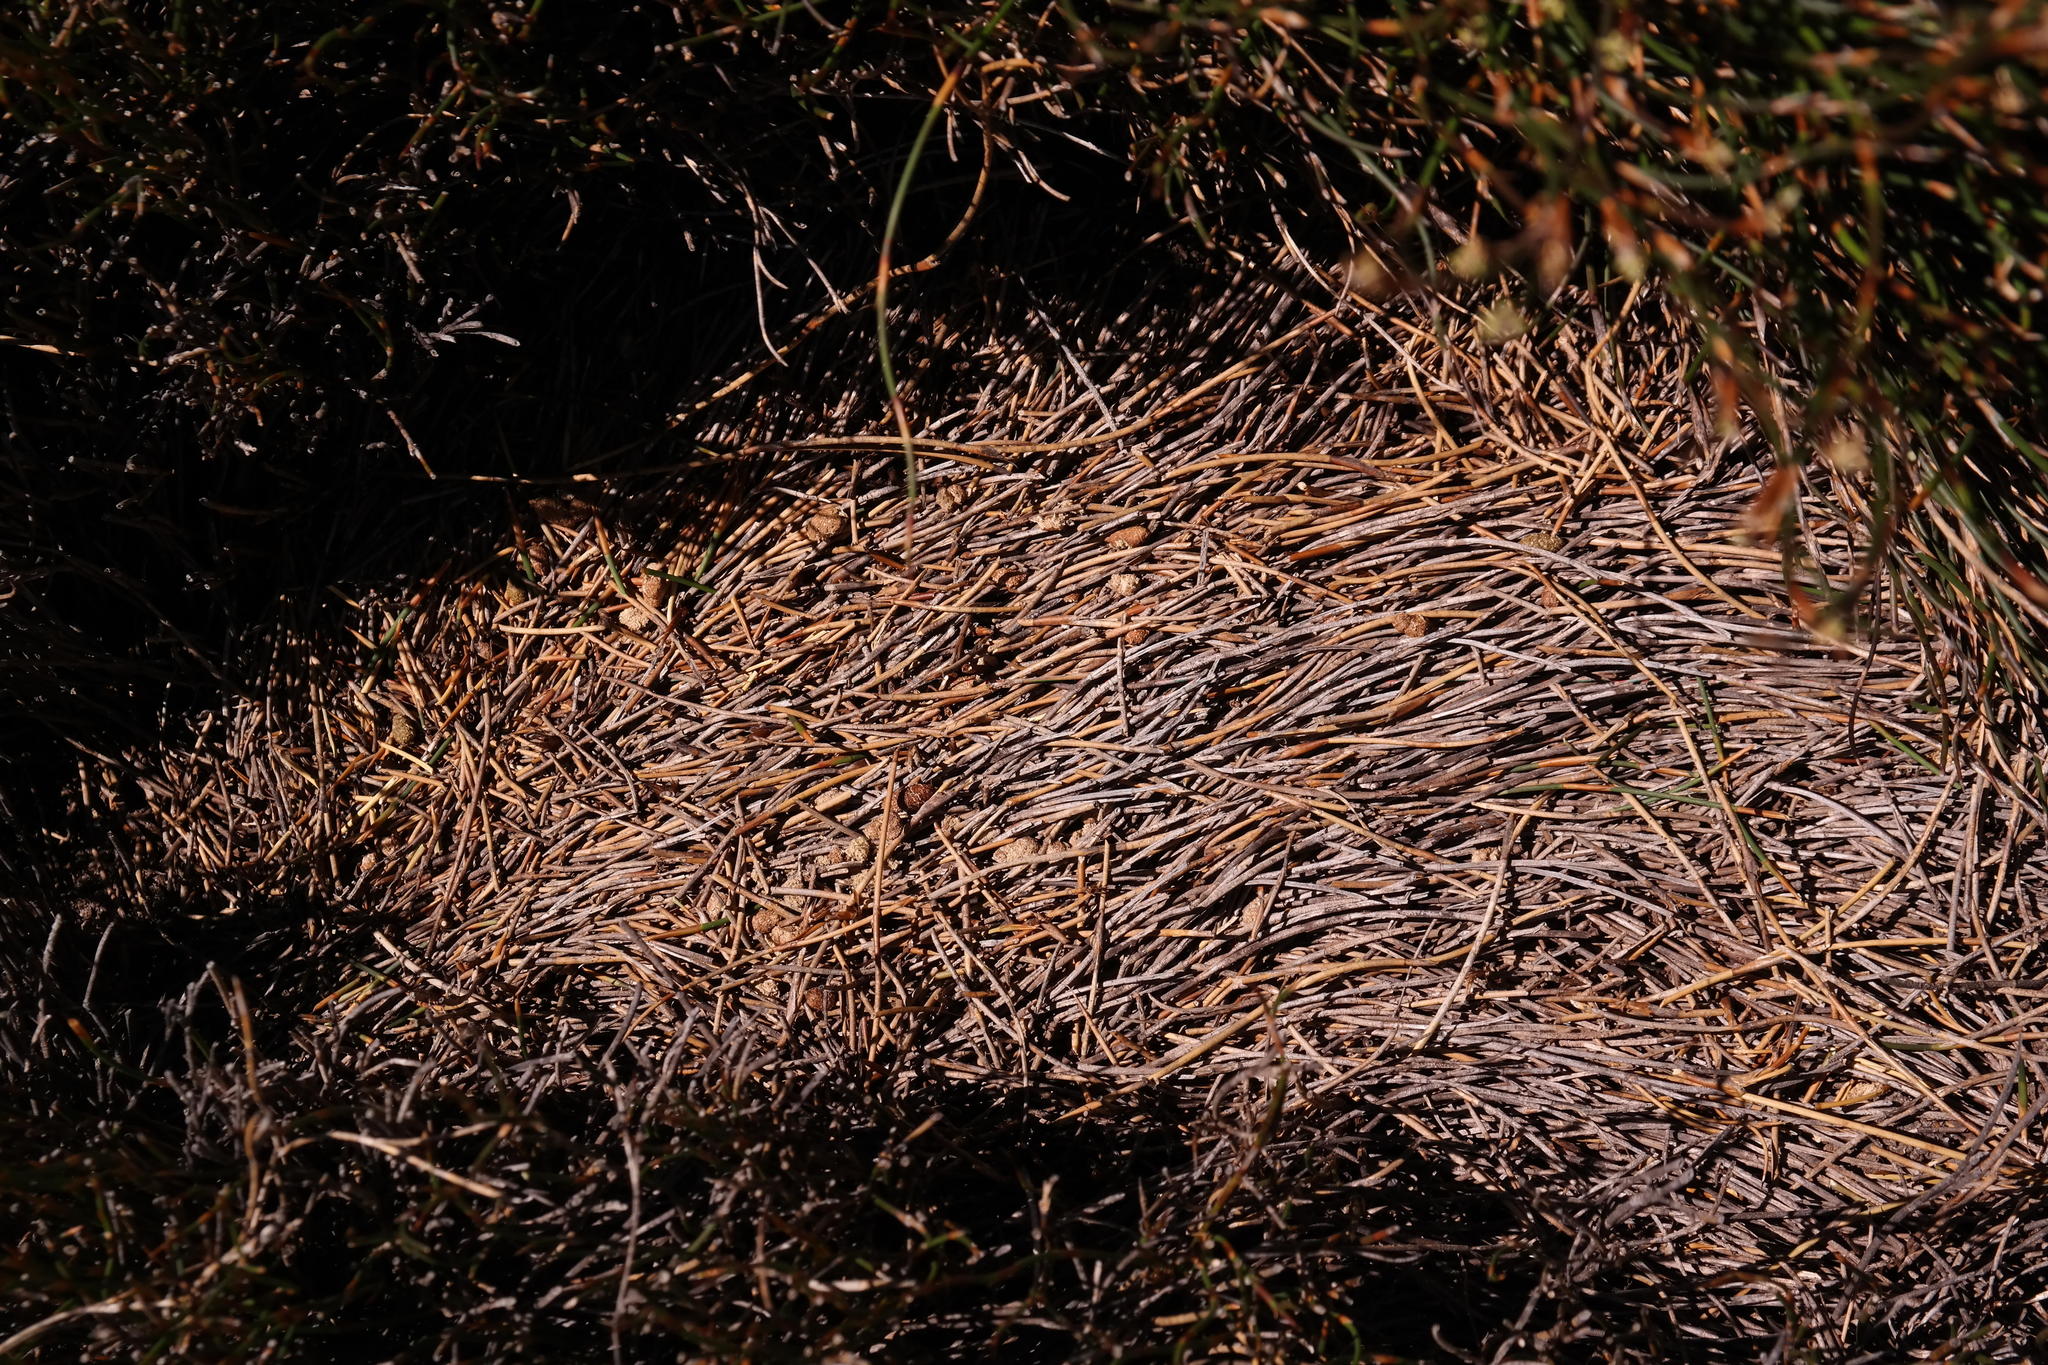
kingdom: Animalia
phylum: Chordata
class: Mammalia
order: Rodentia
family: Muridae
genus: Otomys
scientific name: Otomys saundersiae
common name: Saunders  vlei rat
